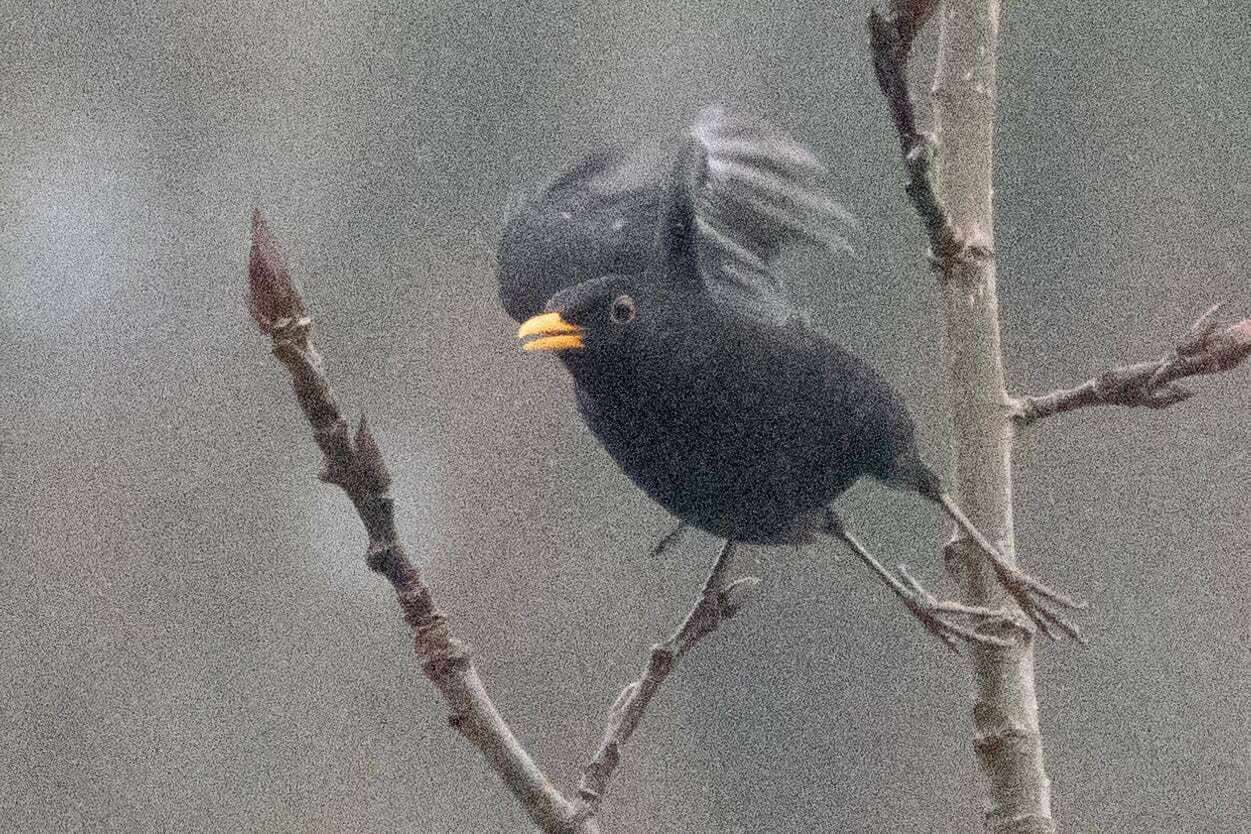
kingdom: Animalia
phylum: Chordata
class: Aves
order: Passeriformes
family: Turdidae
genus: Turdus
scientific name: Turdus merula
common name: Common blackbird
